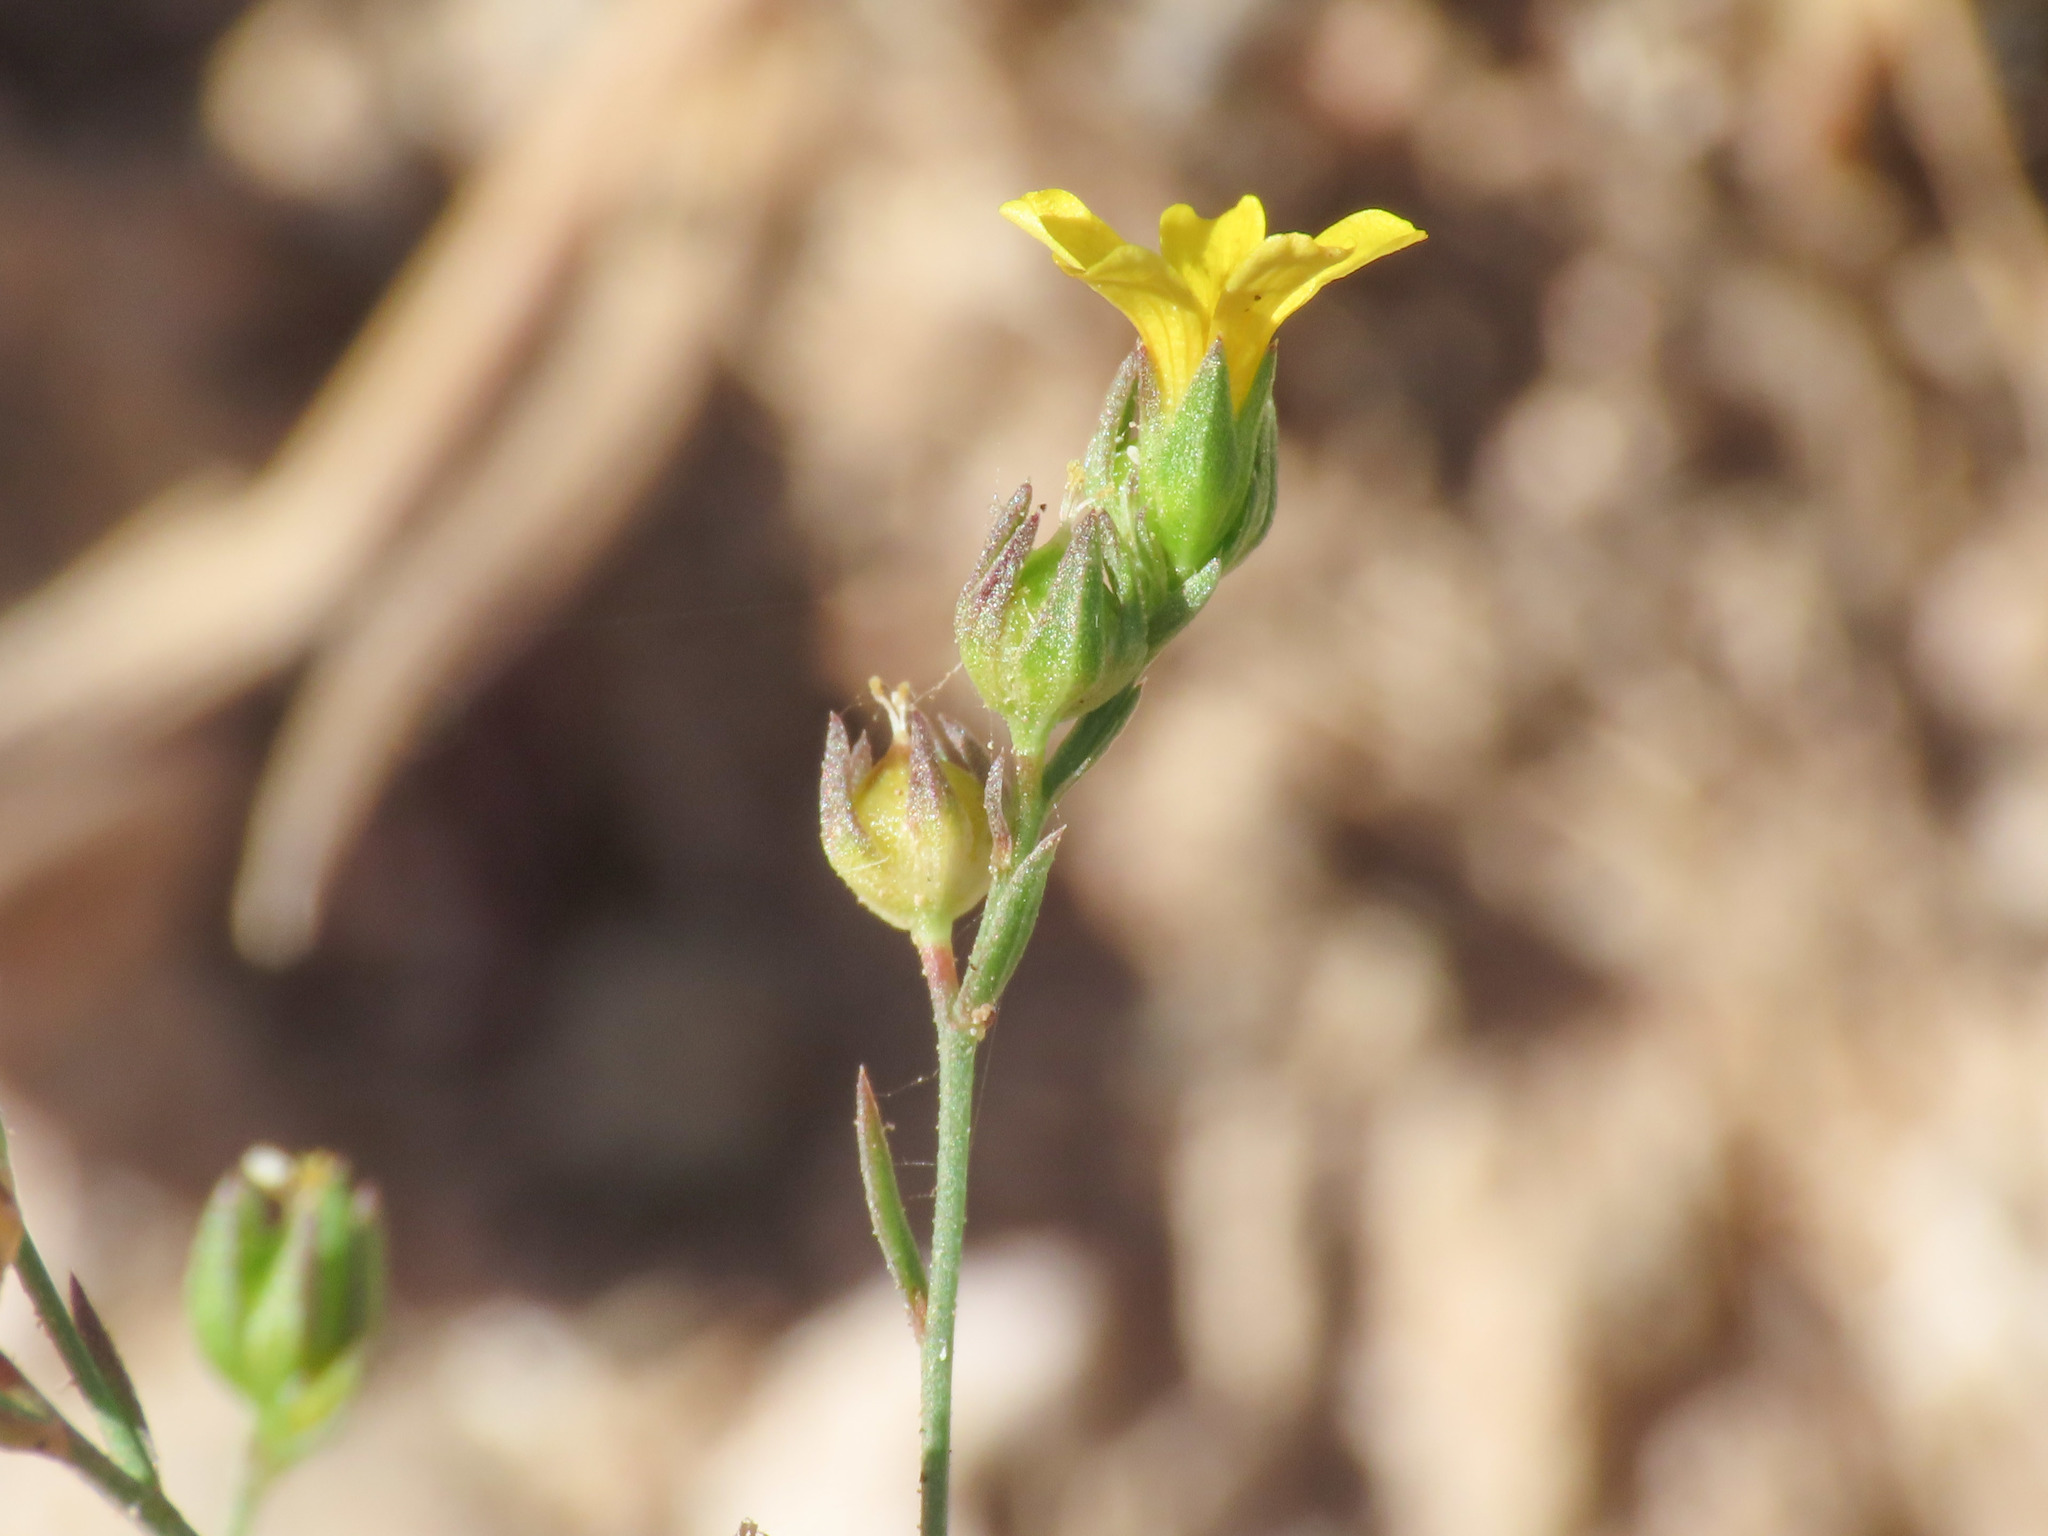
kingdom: Plantae
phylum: Tracheophyta
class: Magnoliopsida
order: Malpighiales
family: Linaceae
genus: Linum
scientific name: Linum trigynum
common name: French flax
